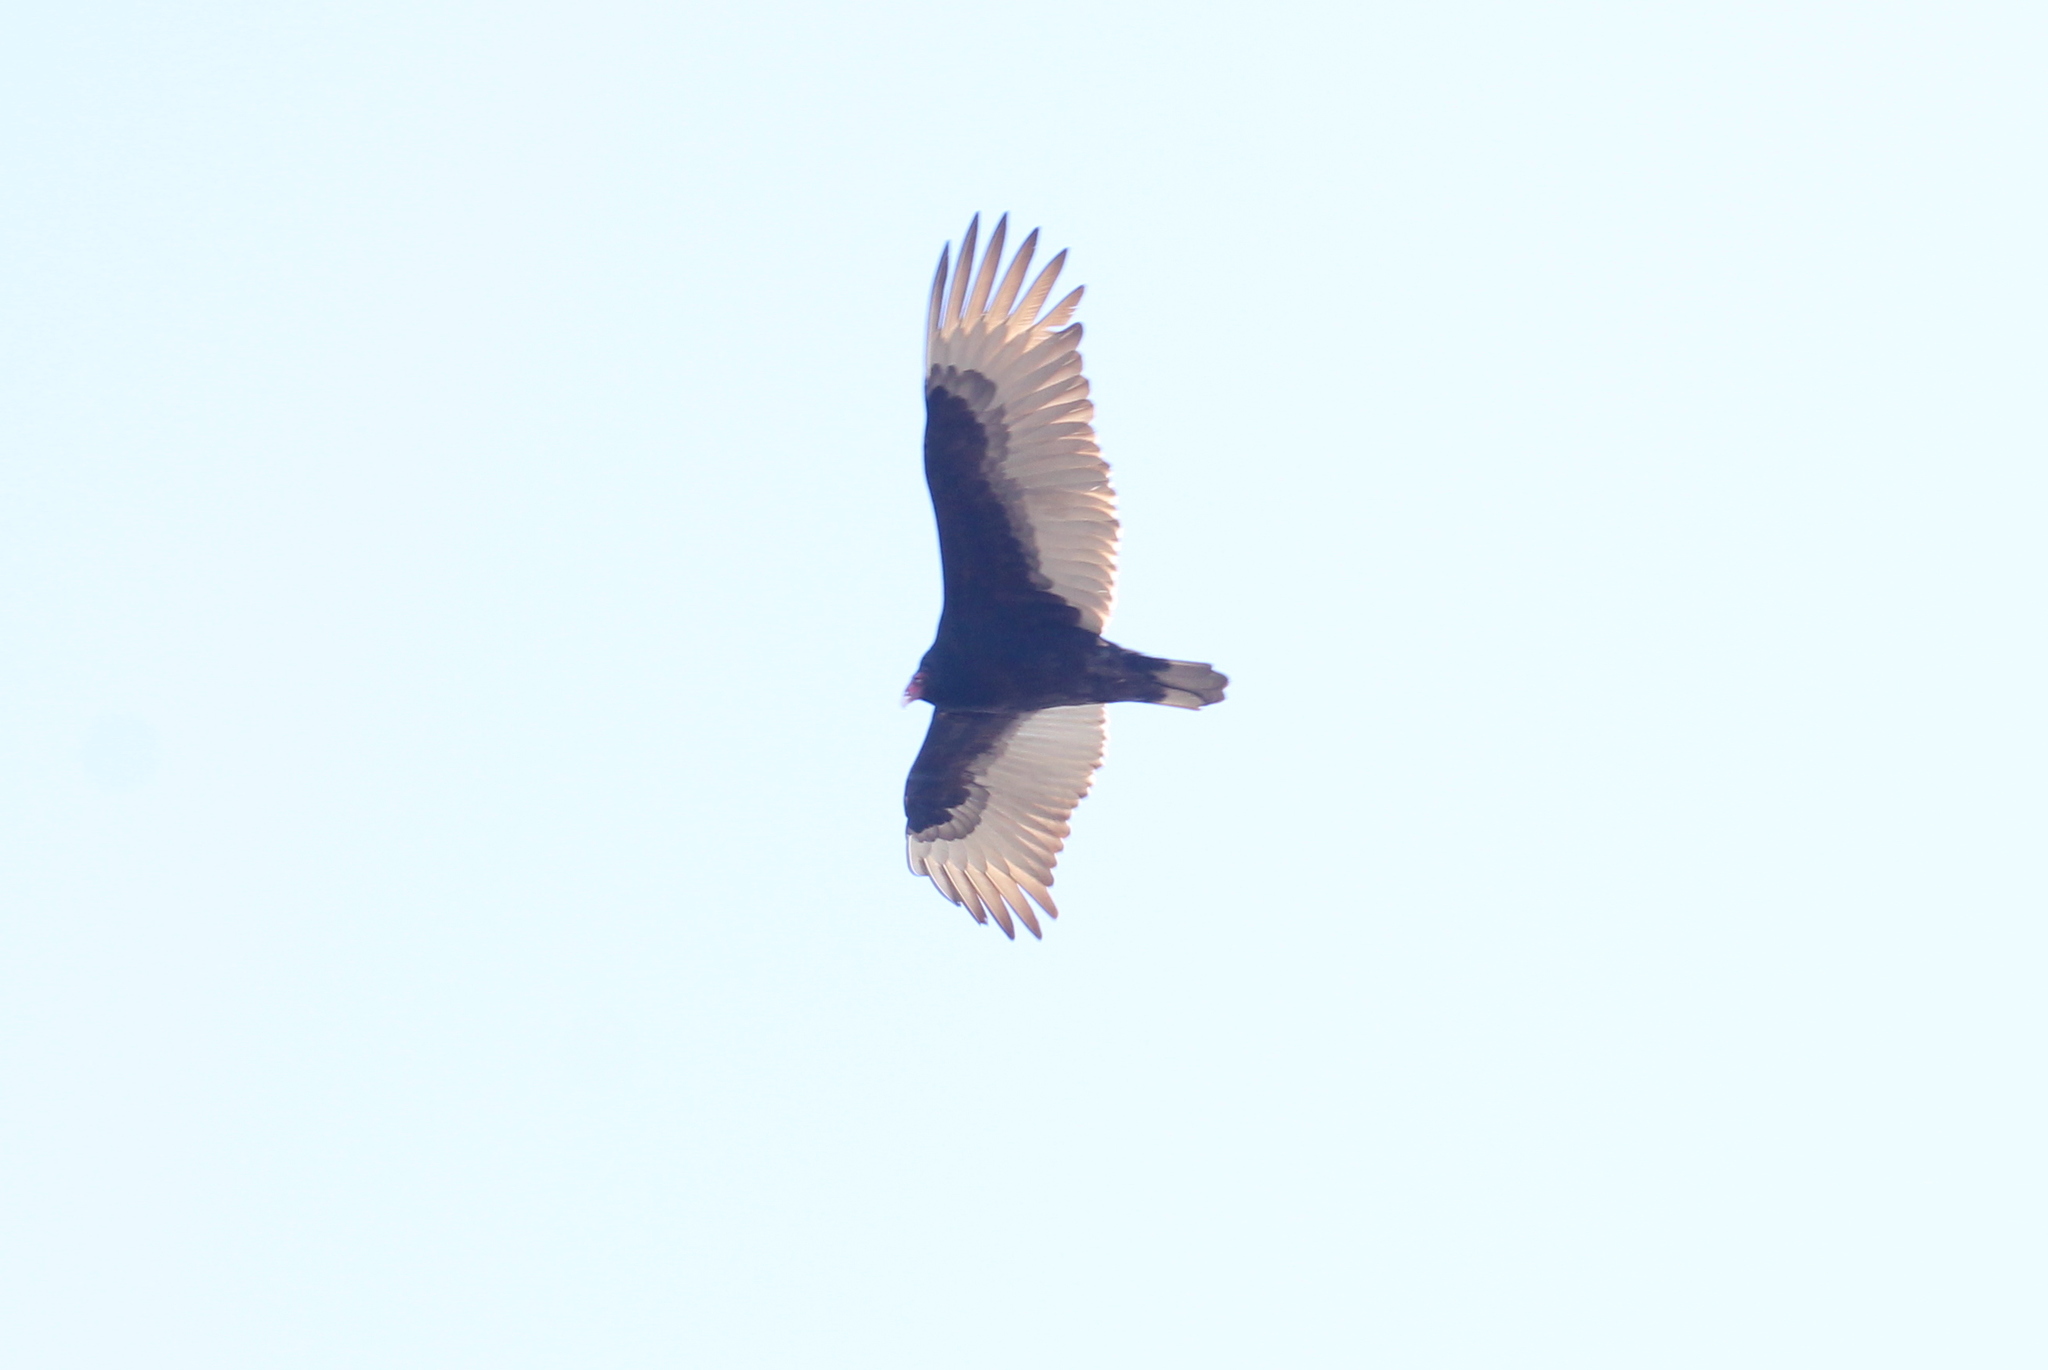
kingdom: Animalia
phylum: Chordata
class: Aves
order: Accipitriformes
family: Cathartidae
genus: Cathartes
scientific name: Cathartes aura
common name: Turkey vulture
